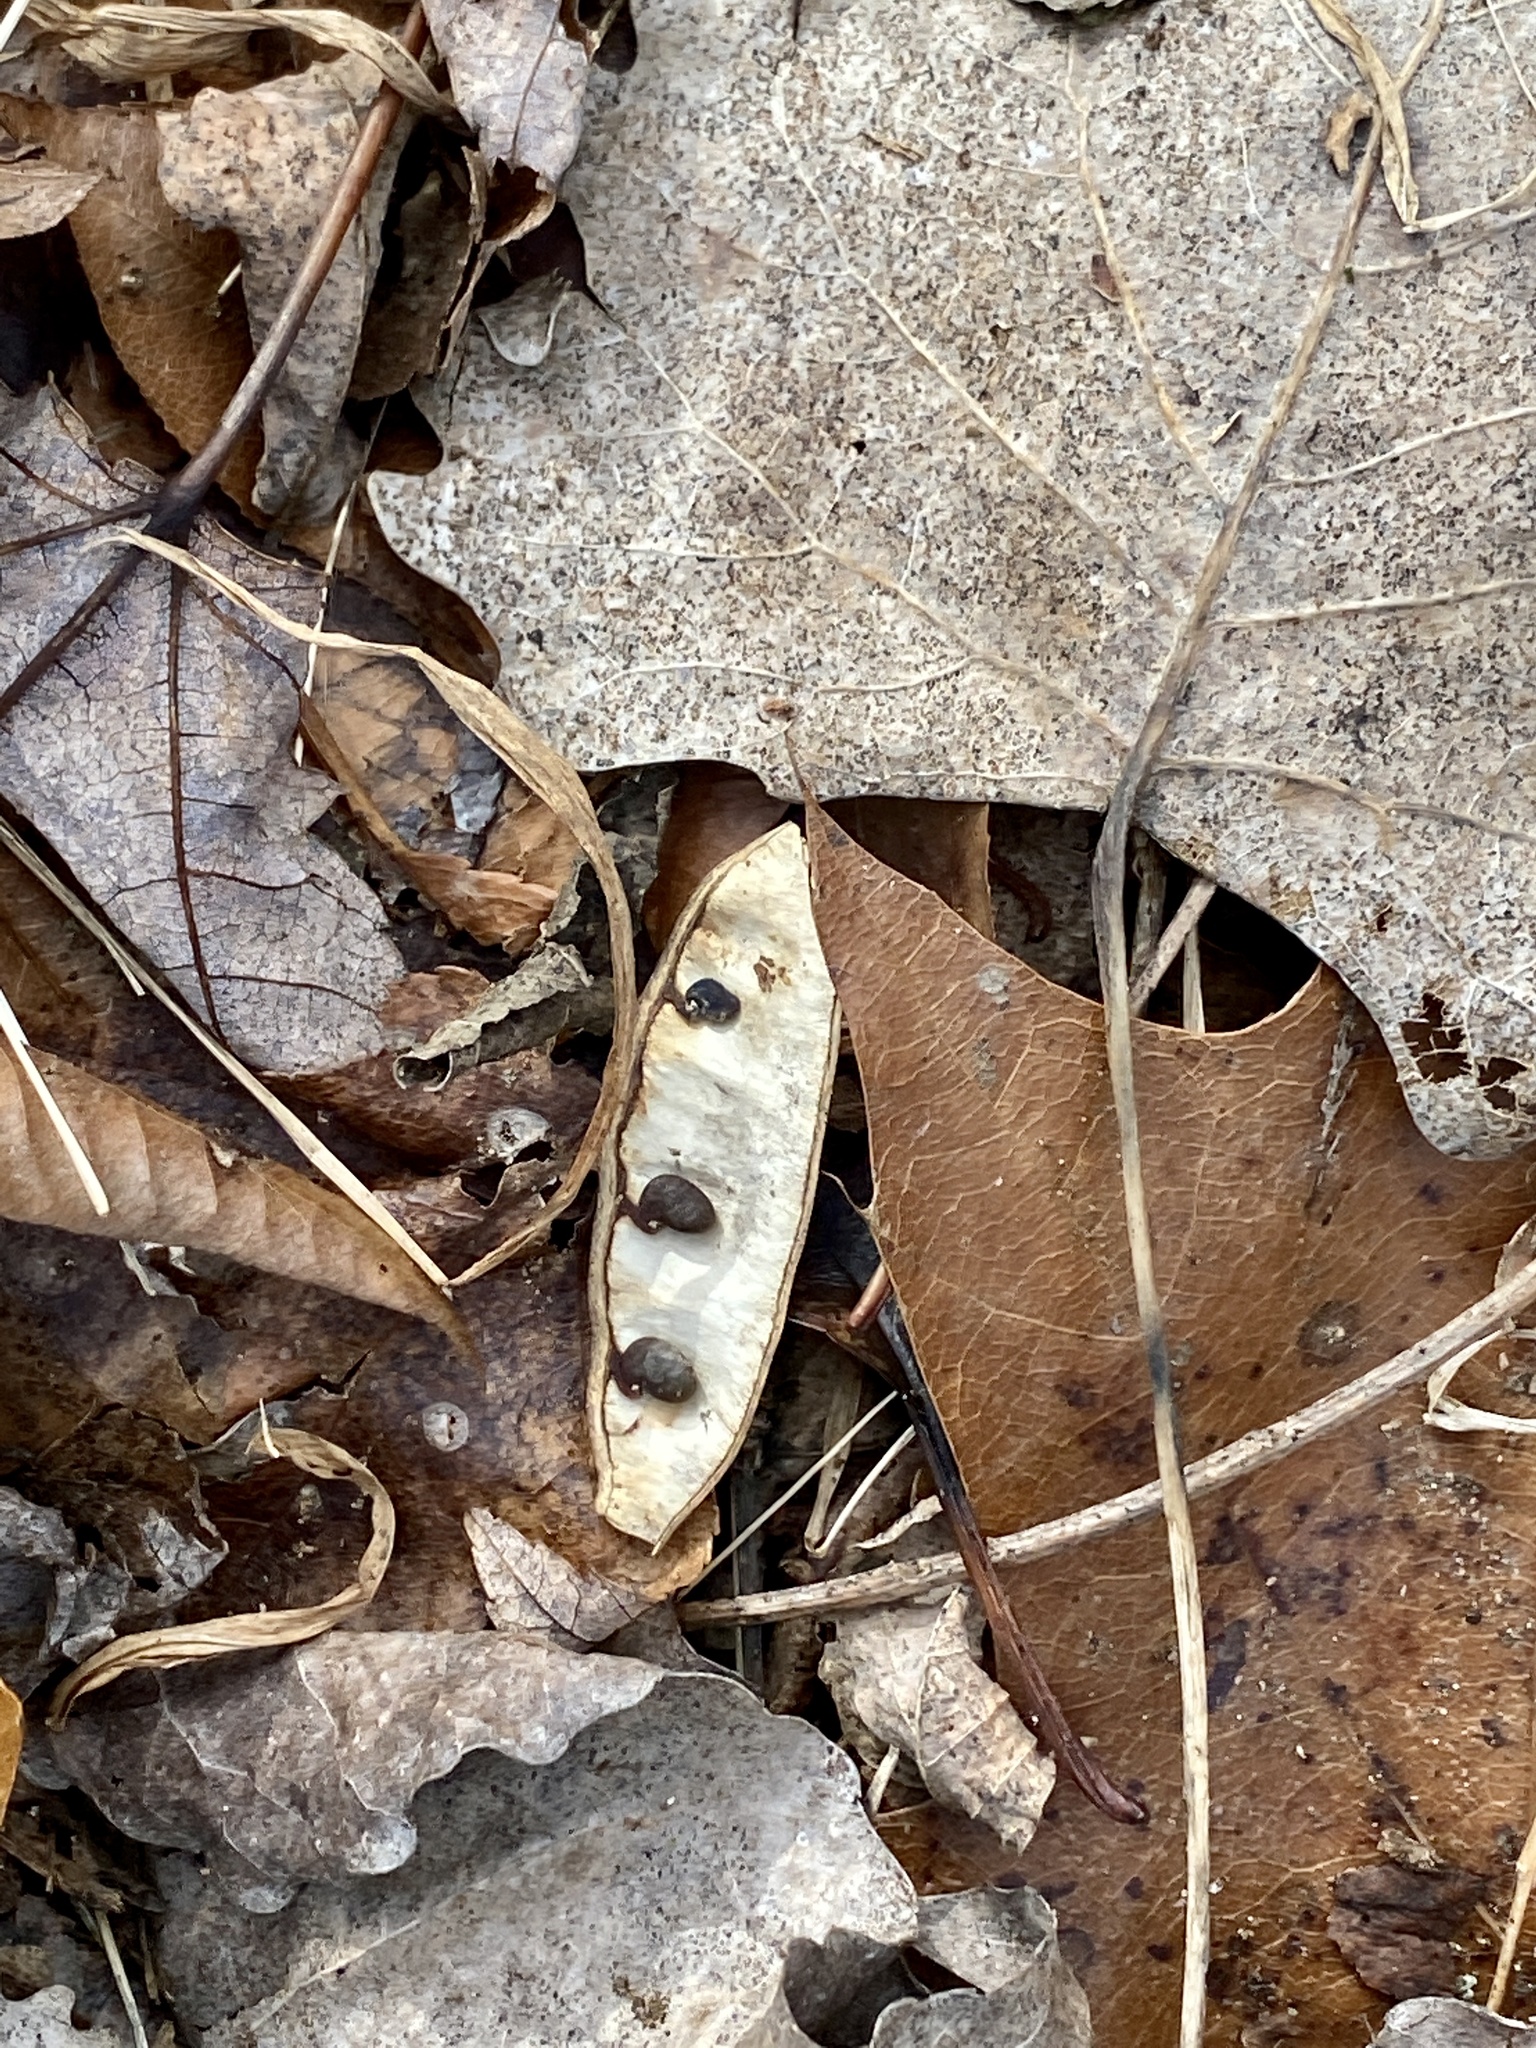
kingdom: Plantae
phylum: Tracheophyta
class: Magnoliopsida
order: Fabales
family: Fabaceae
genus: Robinia
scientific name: Robinia pseudoacacia
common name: Black locust
